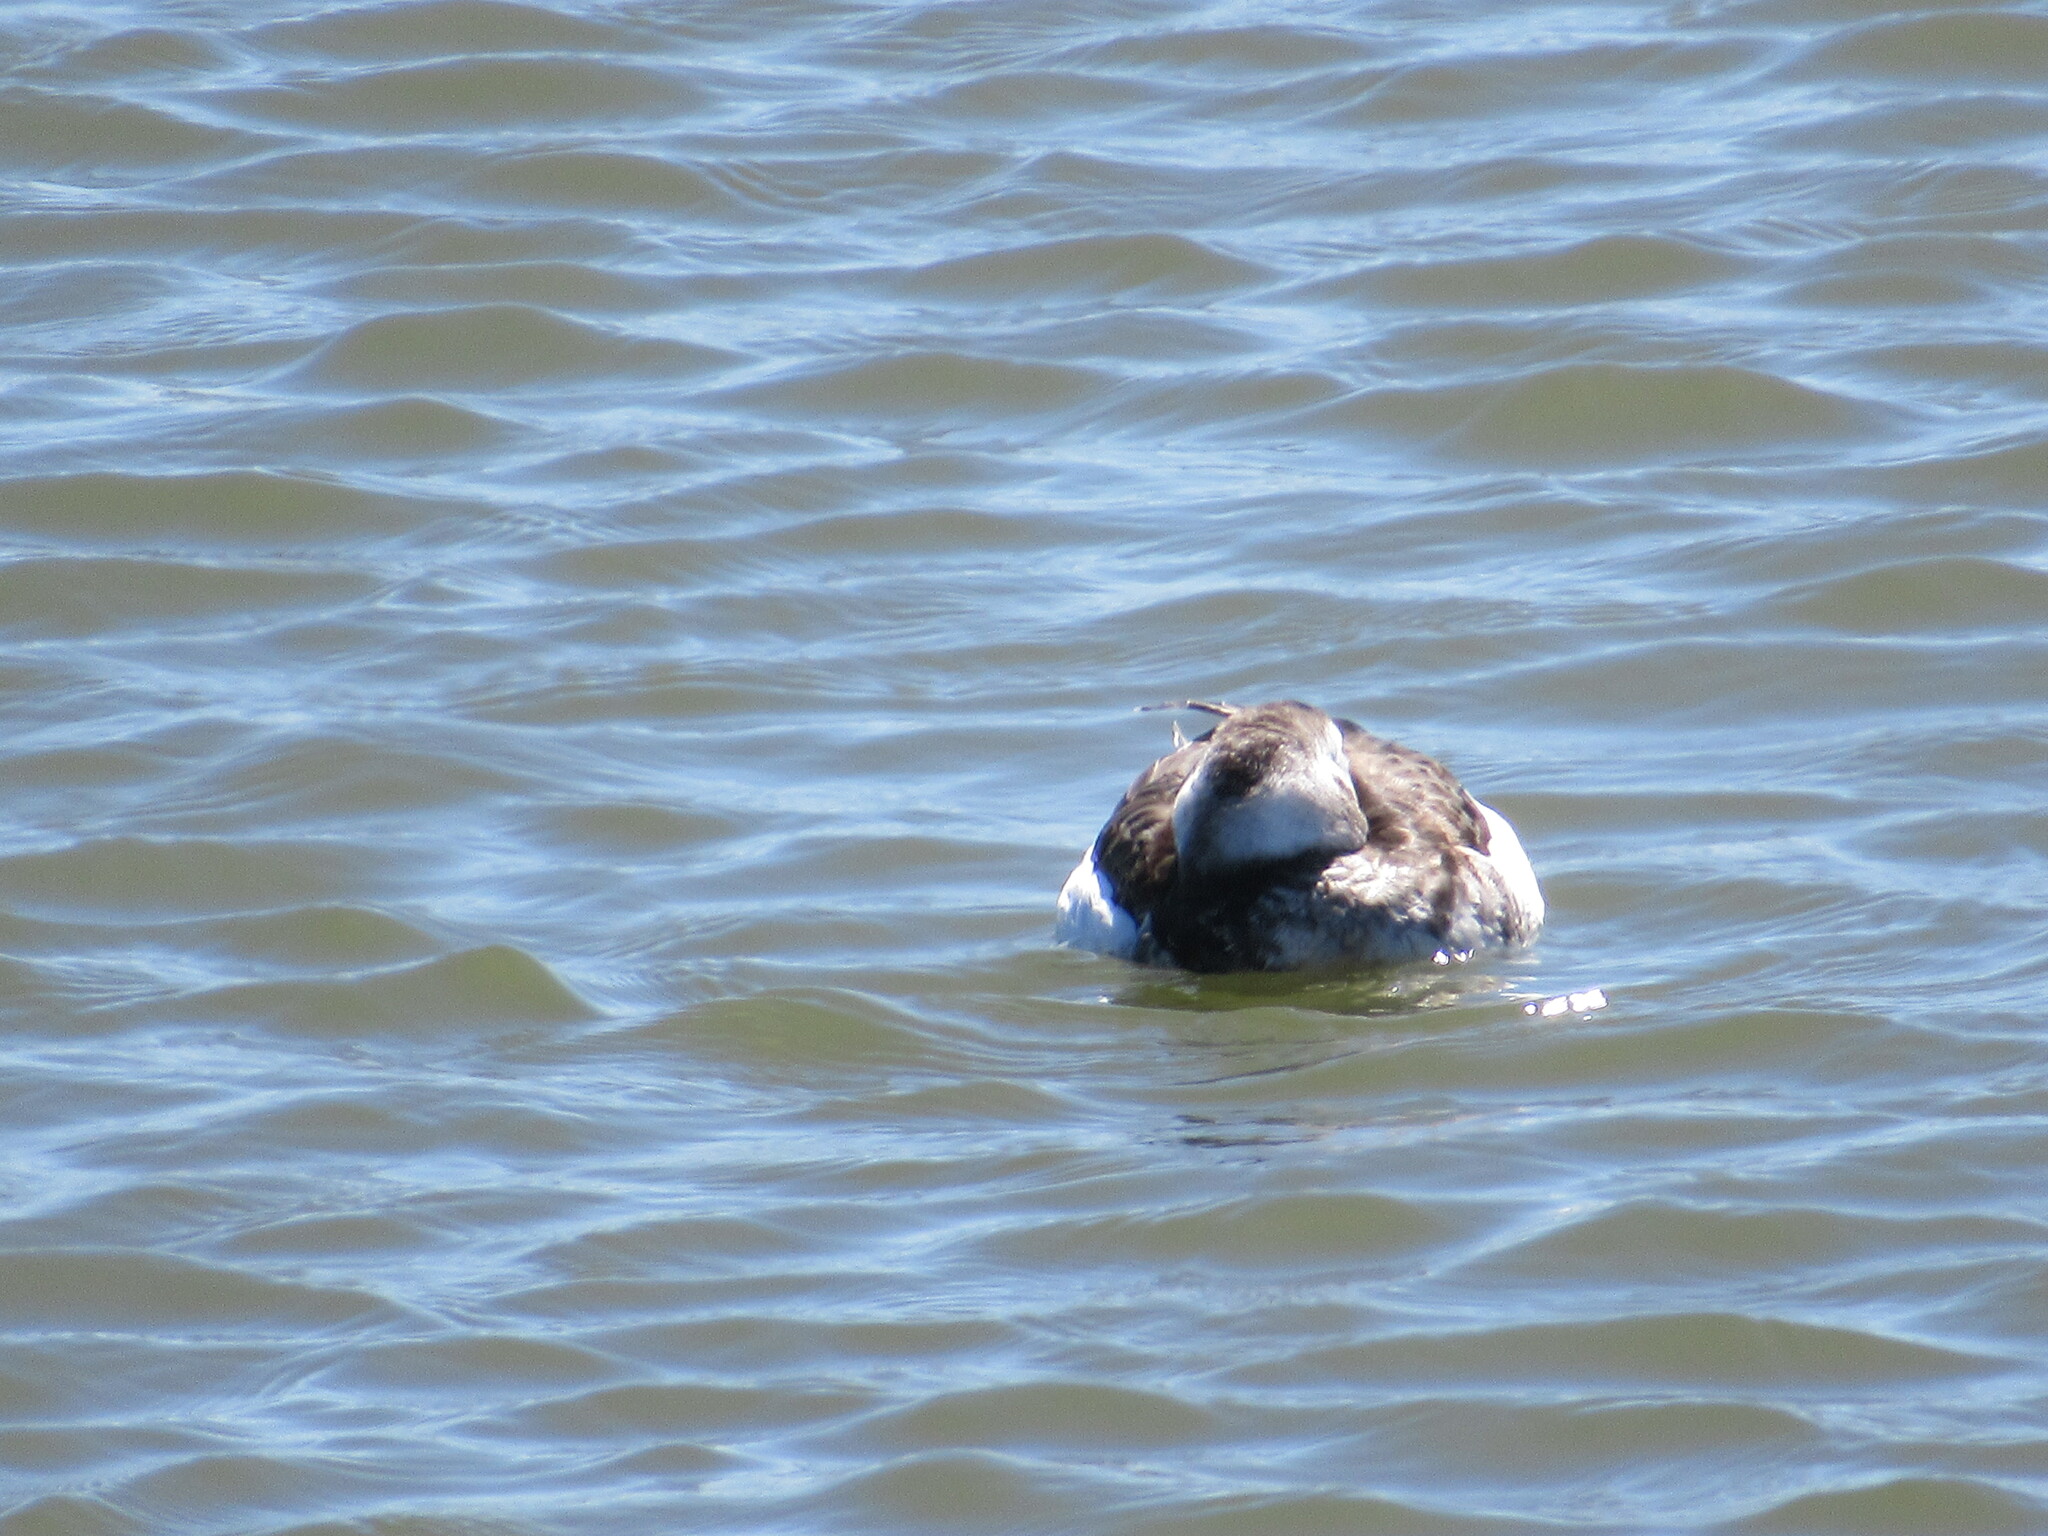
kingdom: Animalia
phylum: Chordata
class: Aves
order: Anseriformes
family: Anatidae
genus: Clangula
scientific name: Clangula hyemalis
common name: Long-tailed duck
